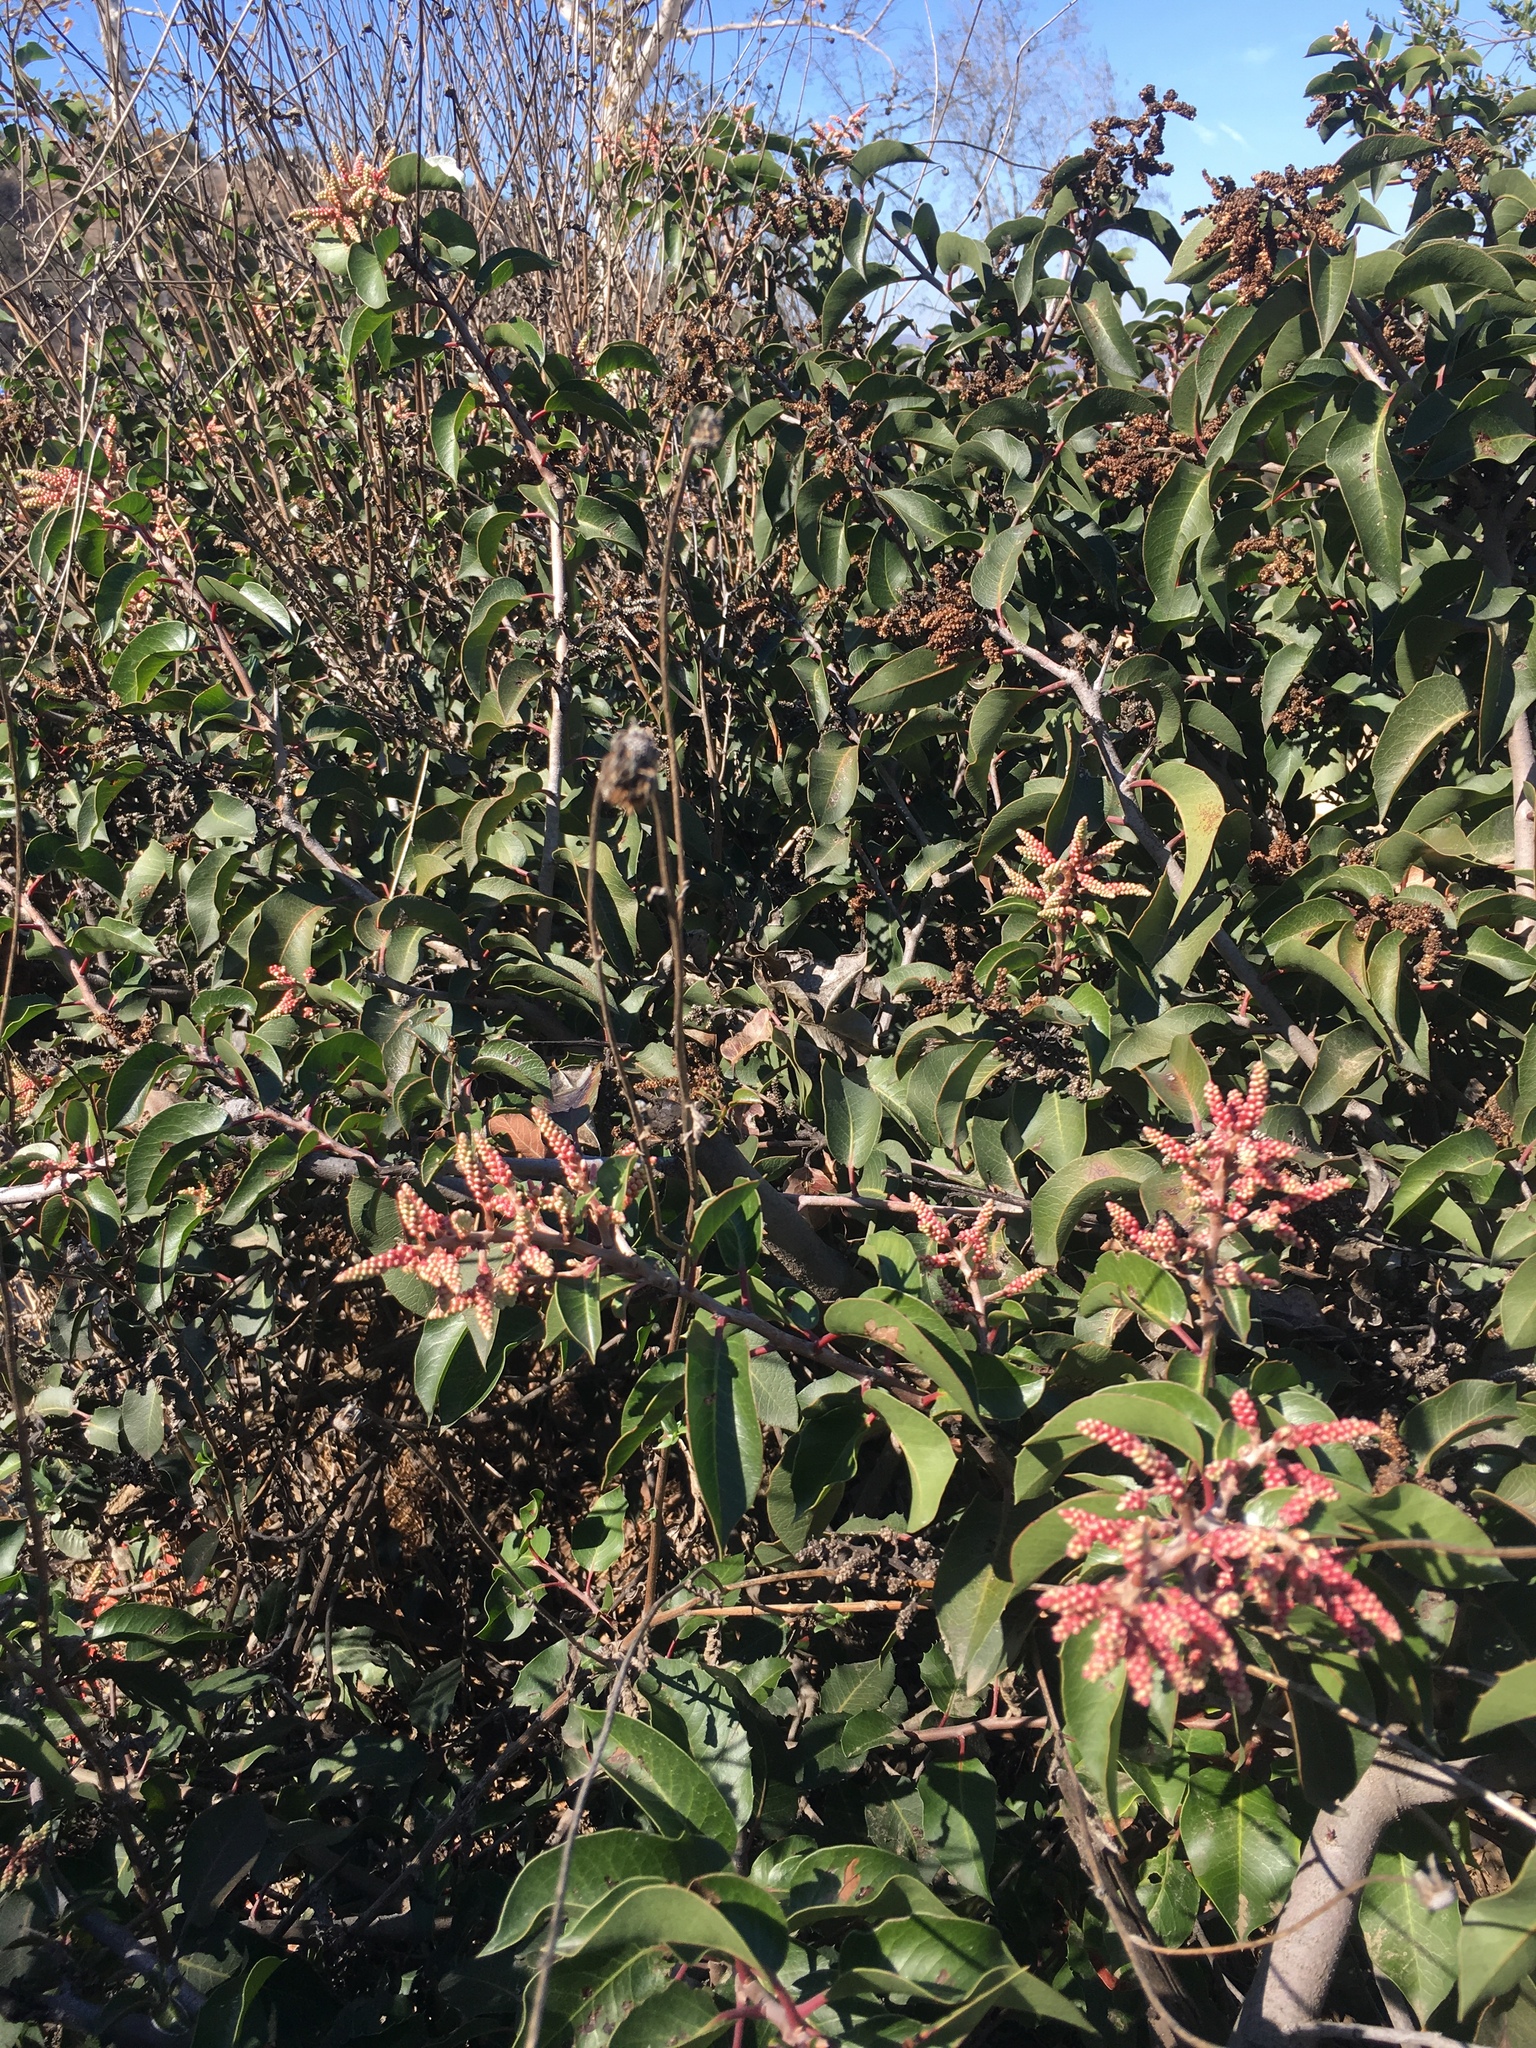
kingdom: Plantae
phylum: Tracheophyta
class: Magnoliopsida
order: Sapindales
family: Anacardiaceae
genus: Rhus
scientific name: Rhus ovata
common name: Sugar sumac
